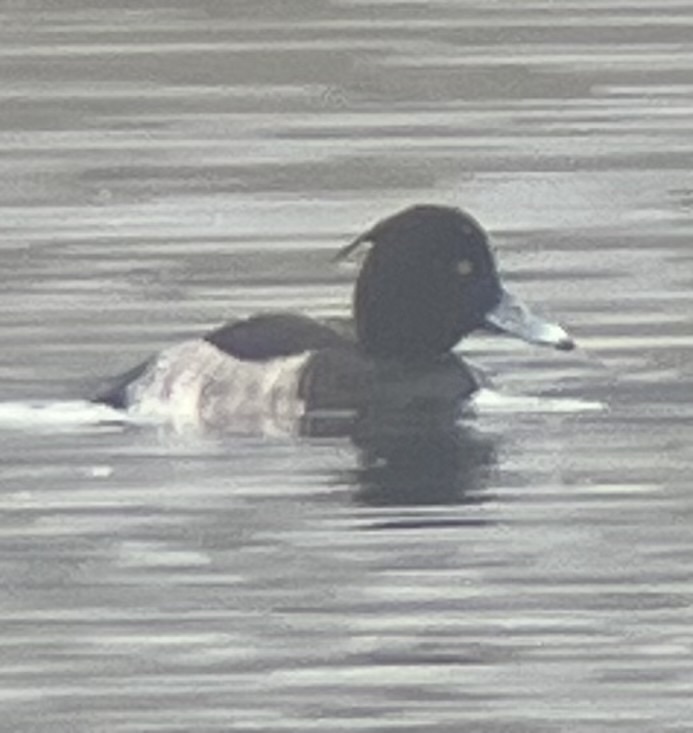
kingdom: Animalia
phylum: Chordata
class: Aves
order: Anseriformes
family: Anatidae
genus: Aythya
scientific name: Aythya fuligula
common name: Tufted duck
